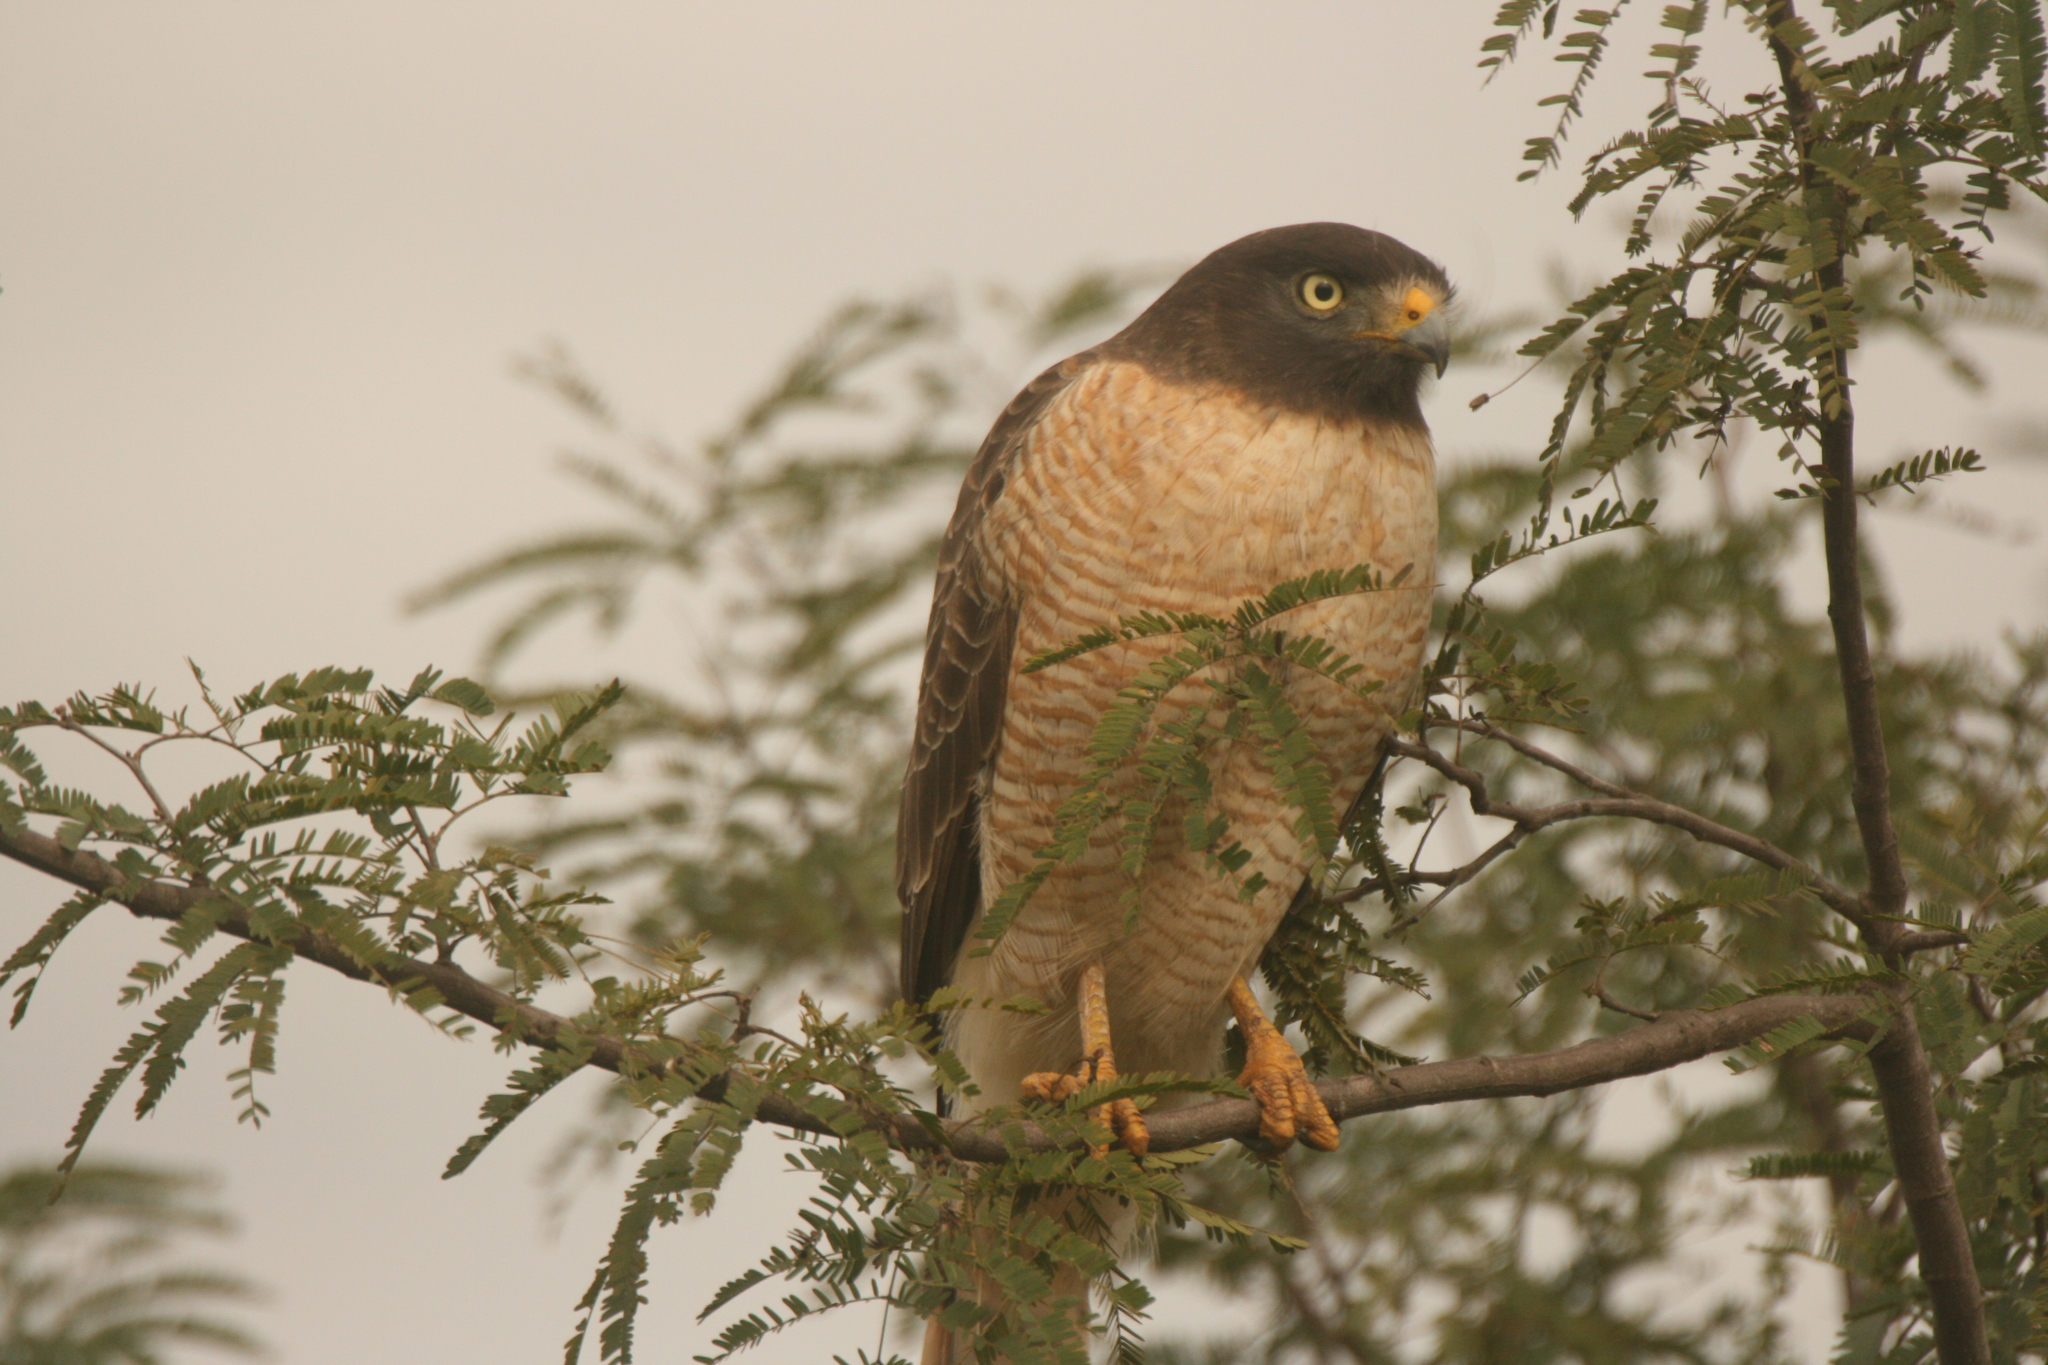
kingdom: Animalia
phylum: Chordata
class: Aves
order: Accipitriformes
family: Accipitridae
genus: Rupornis
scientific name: Rupornis magnirostris
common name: Roadside hawk
